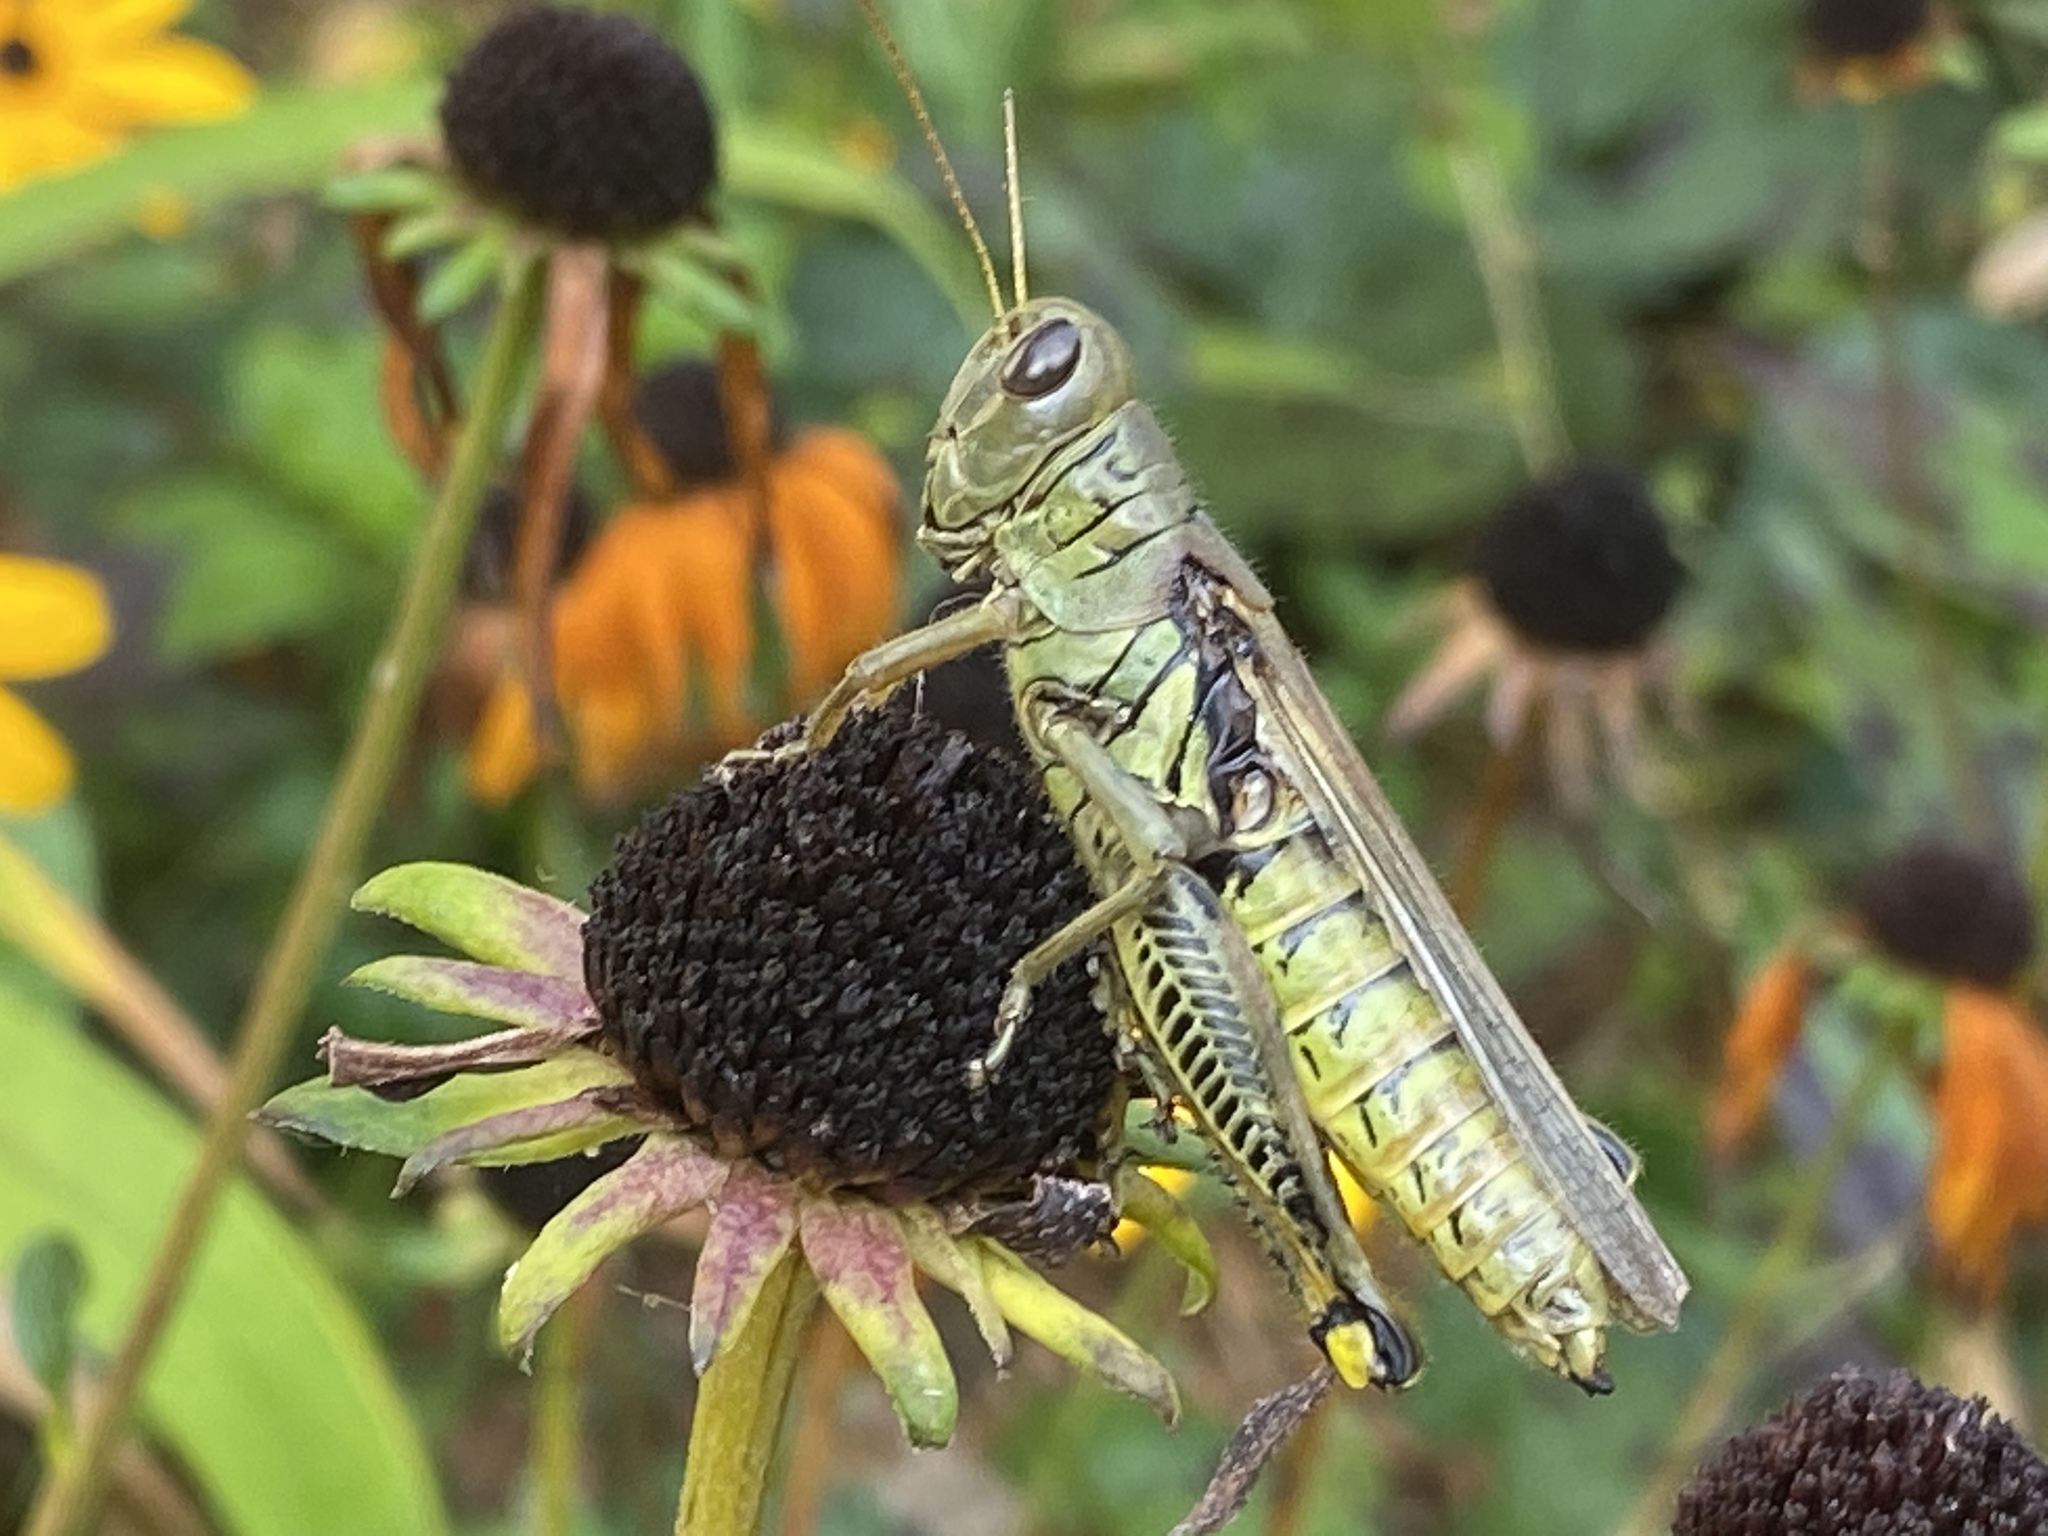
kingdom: Animalia
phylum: Arthropoda
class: Insecta
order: Orthoptera
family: Acrididae
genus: Melanoplus
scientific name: Melanoplus differentialis
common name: Differential grasshopper
